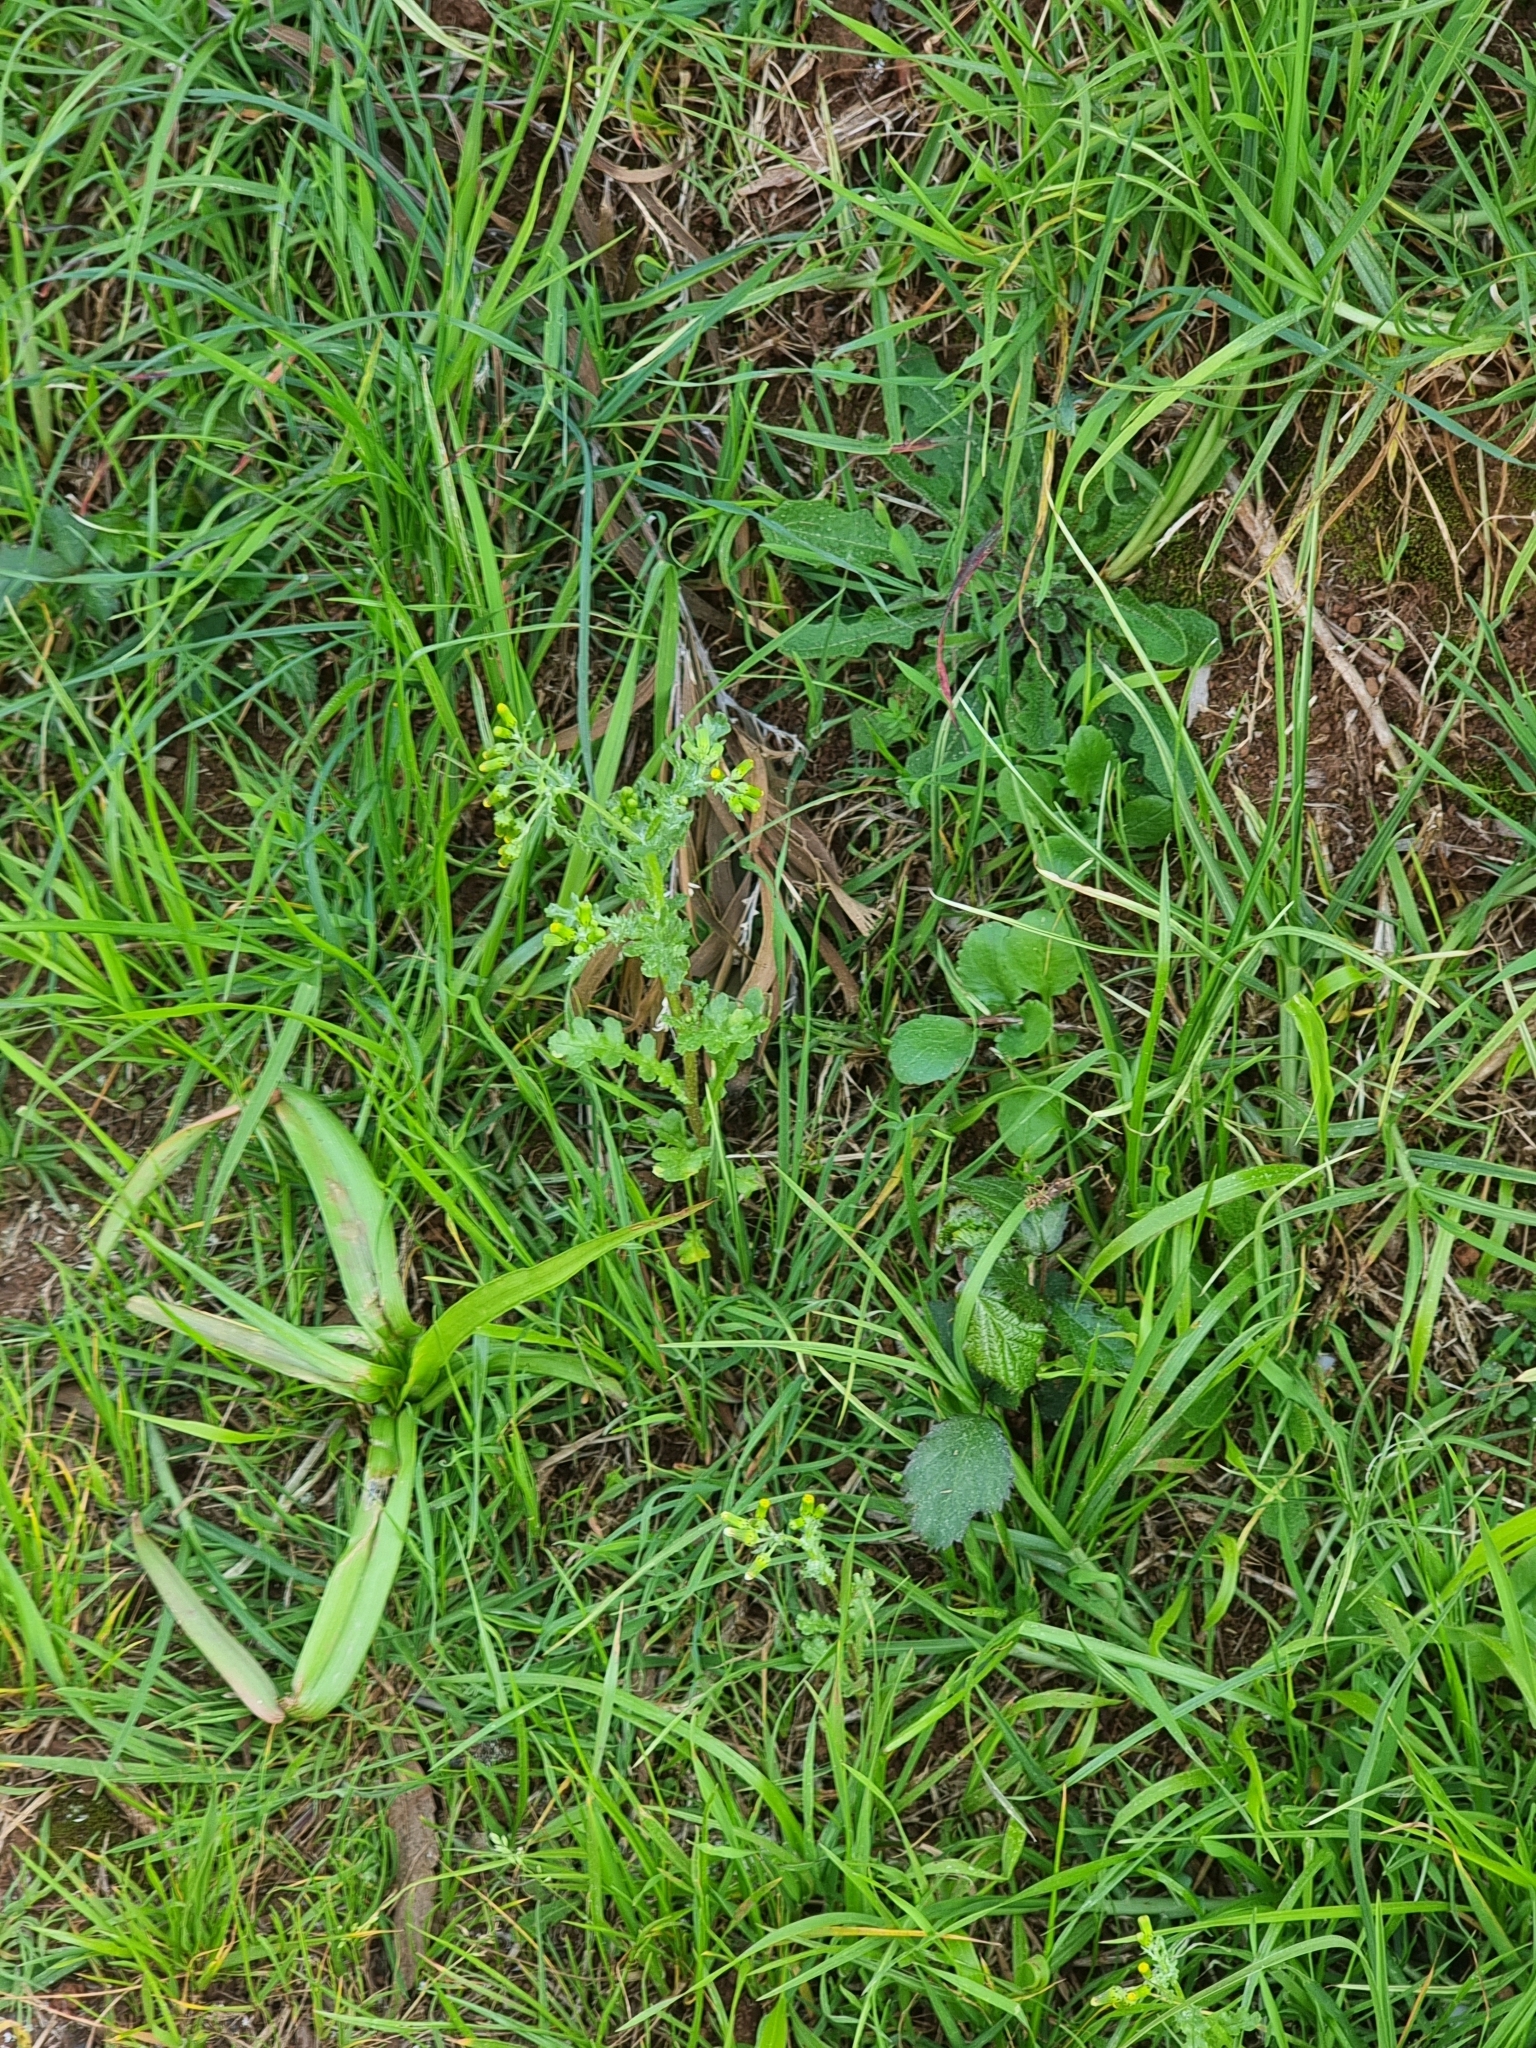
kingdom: Plantae
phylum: Tracheophyta
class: Magnoliopsida
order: Asterales
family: Asteraceae
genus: Senecio
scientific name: Senecio vulgaris
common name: Old-man-in-the-spring
